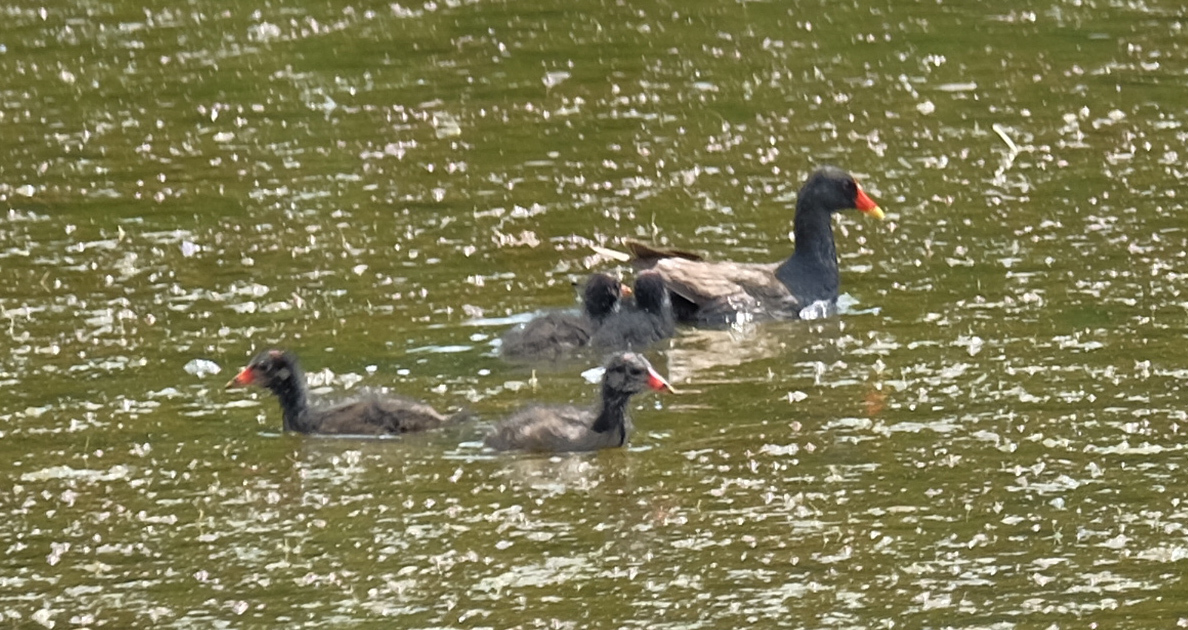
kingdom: Animalia
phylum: Chordata
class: Aves
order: Gruiformes
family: Rallidae
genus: Gallinula
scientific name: Gallinula chloropus
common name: Common moorhen
